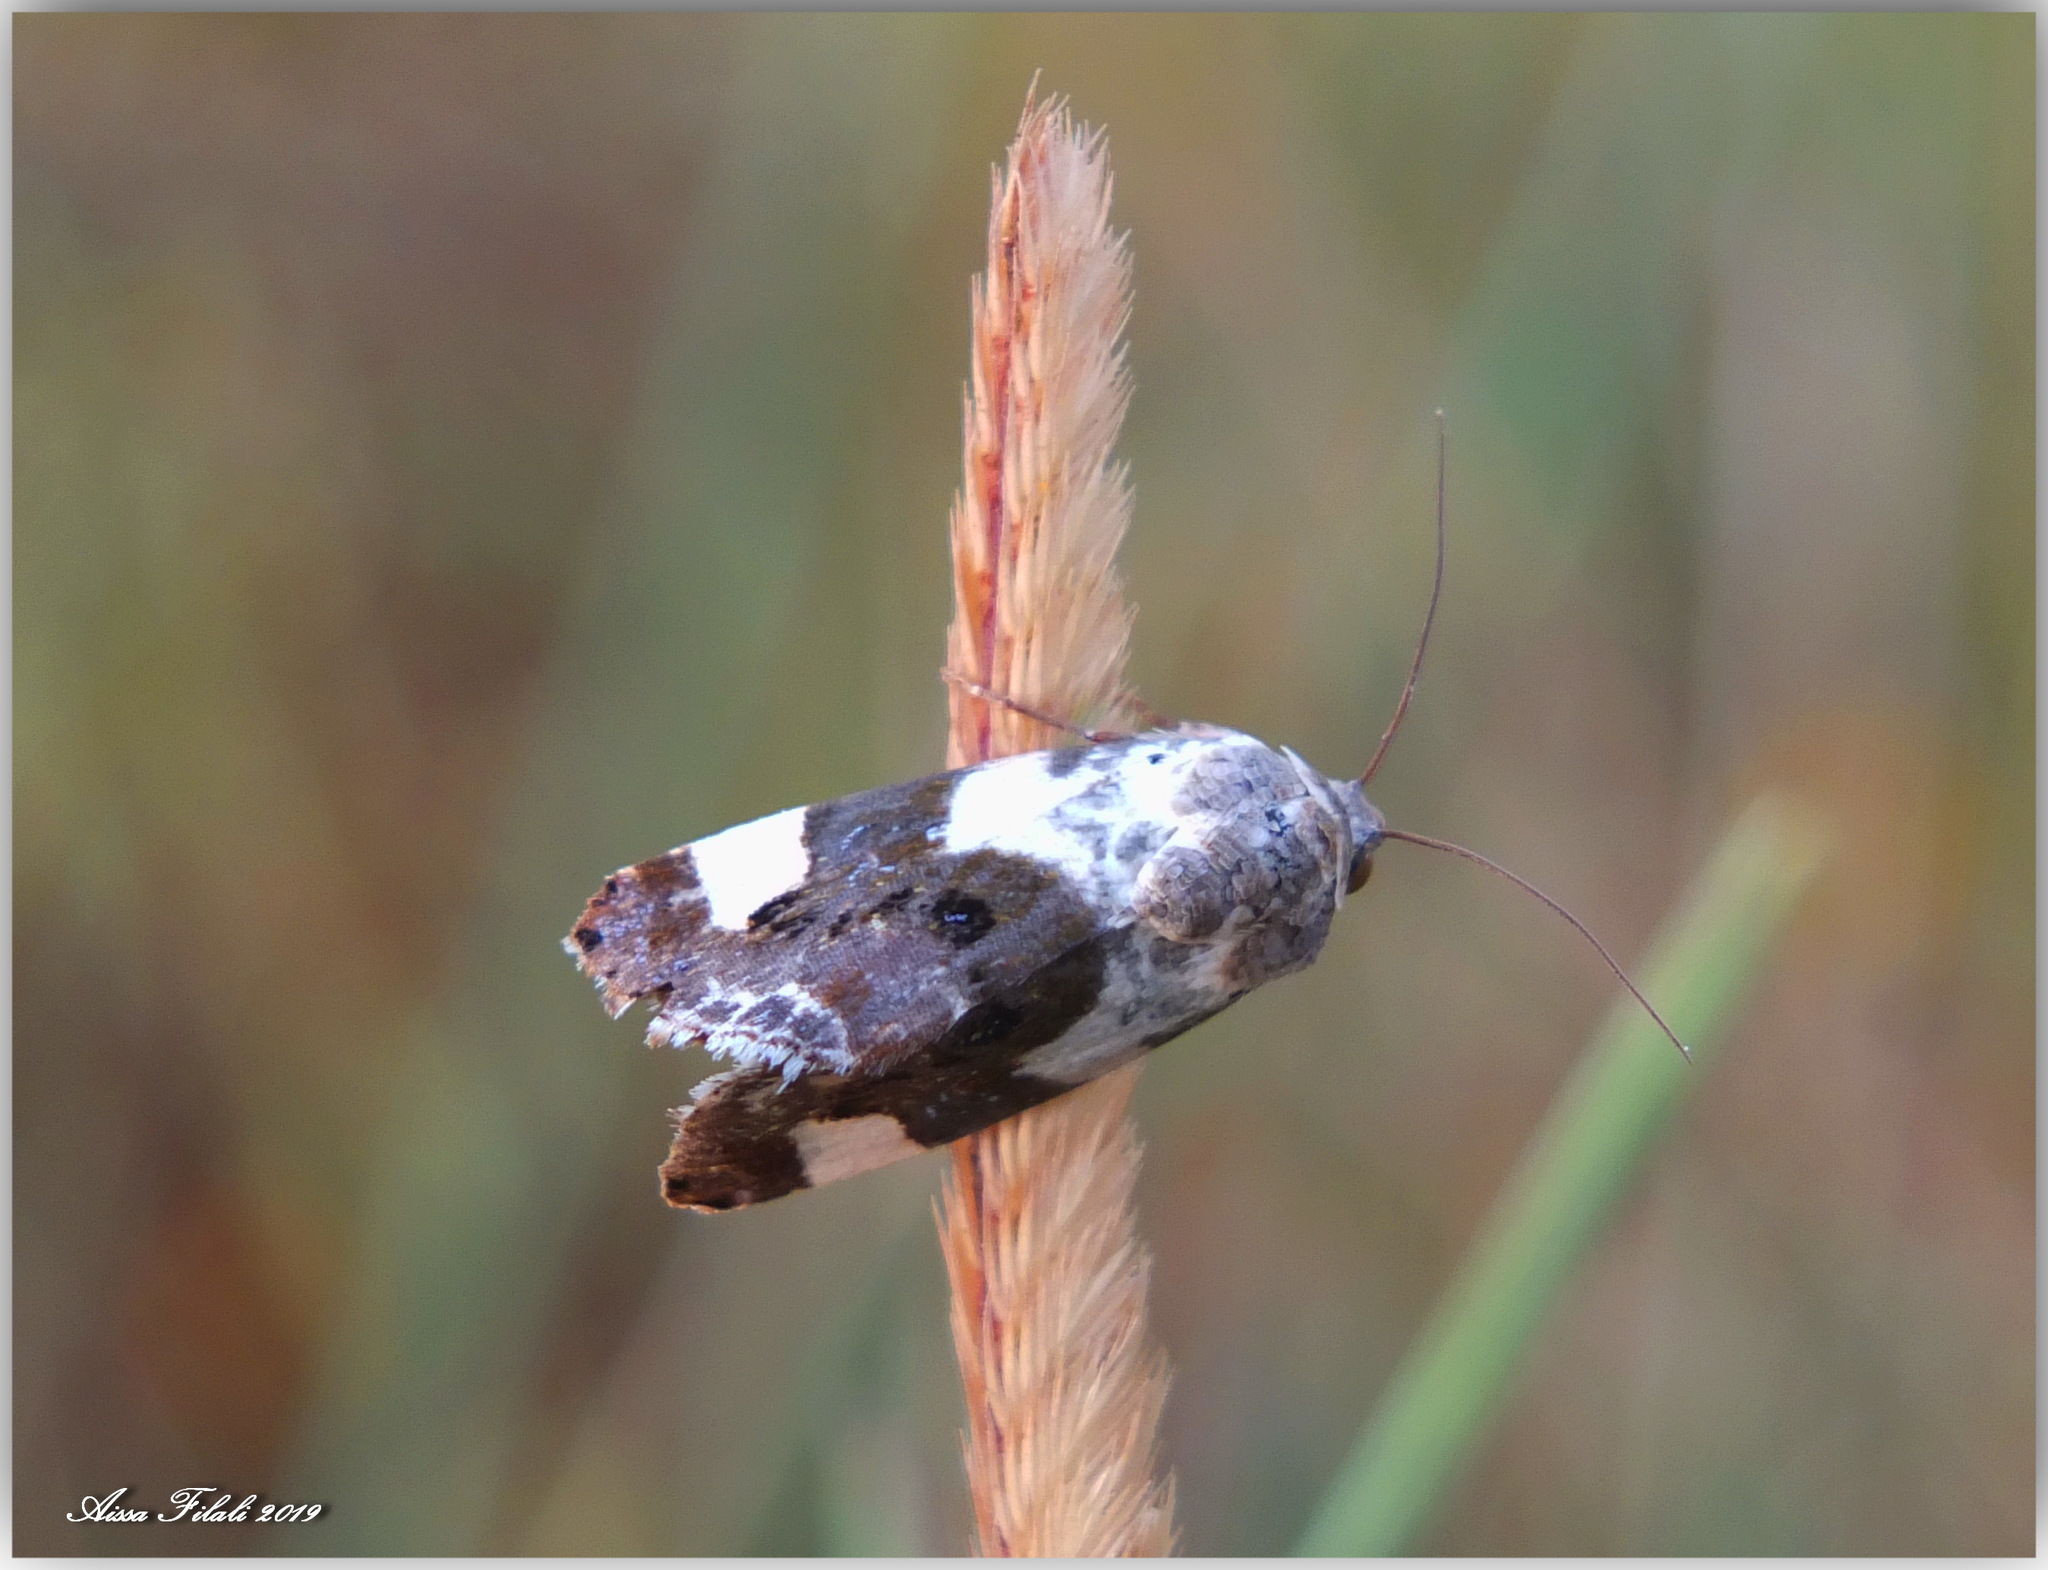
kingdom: Animalia
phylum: Arthropoda
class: Insecta
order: Lepidoptera
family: Noctuidae
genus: Acontia
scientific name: Acontia lucida
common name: Pale shoulder
